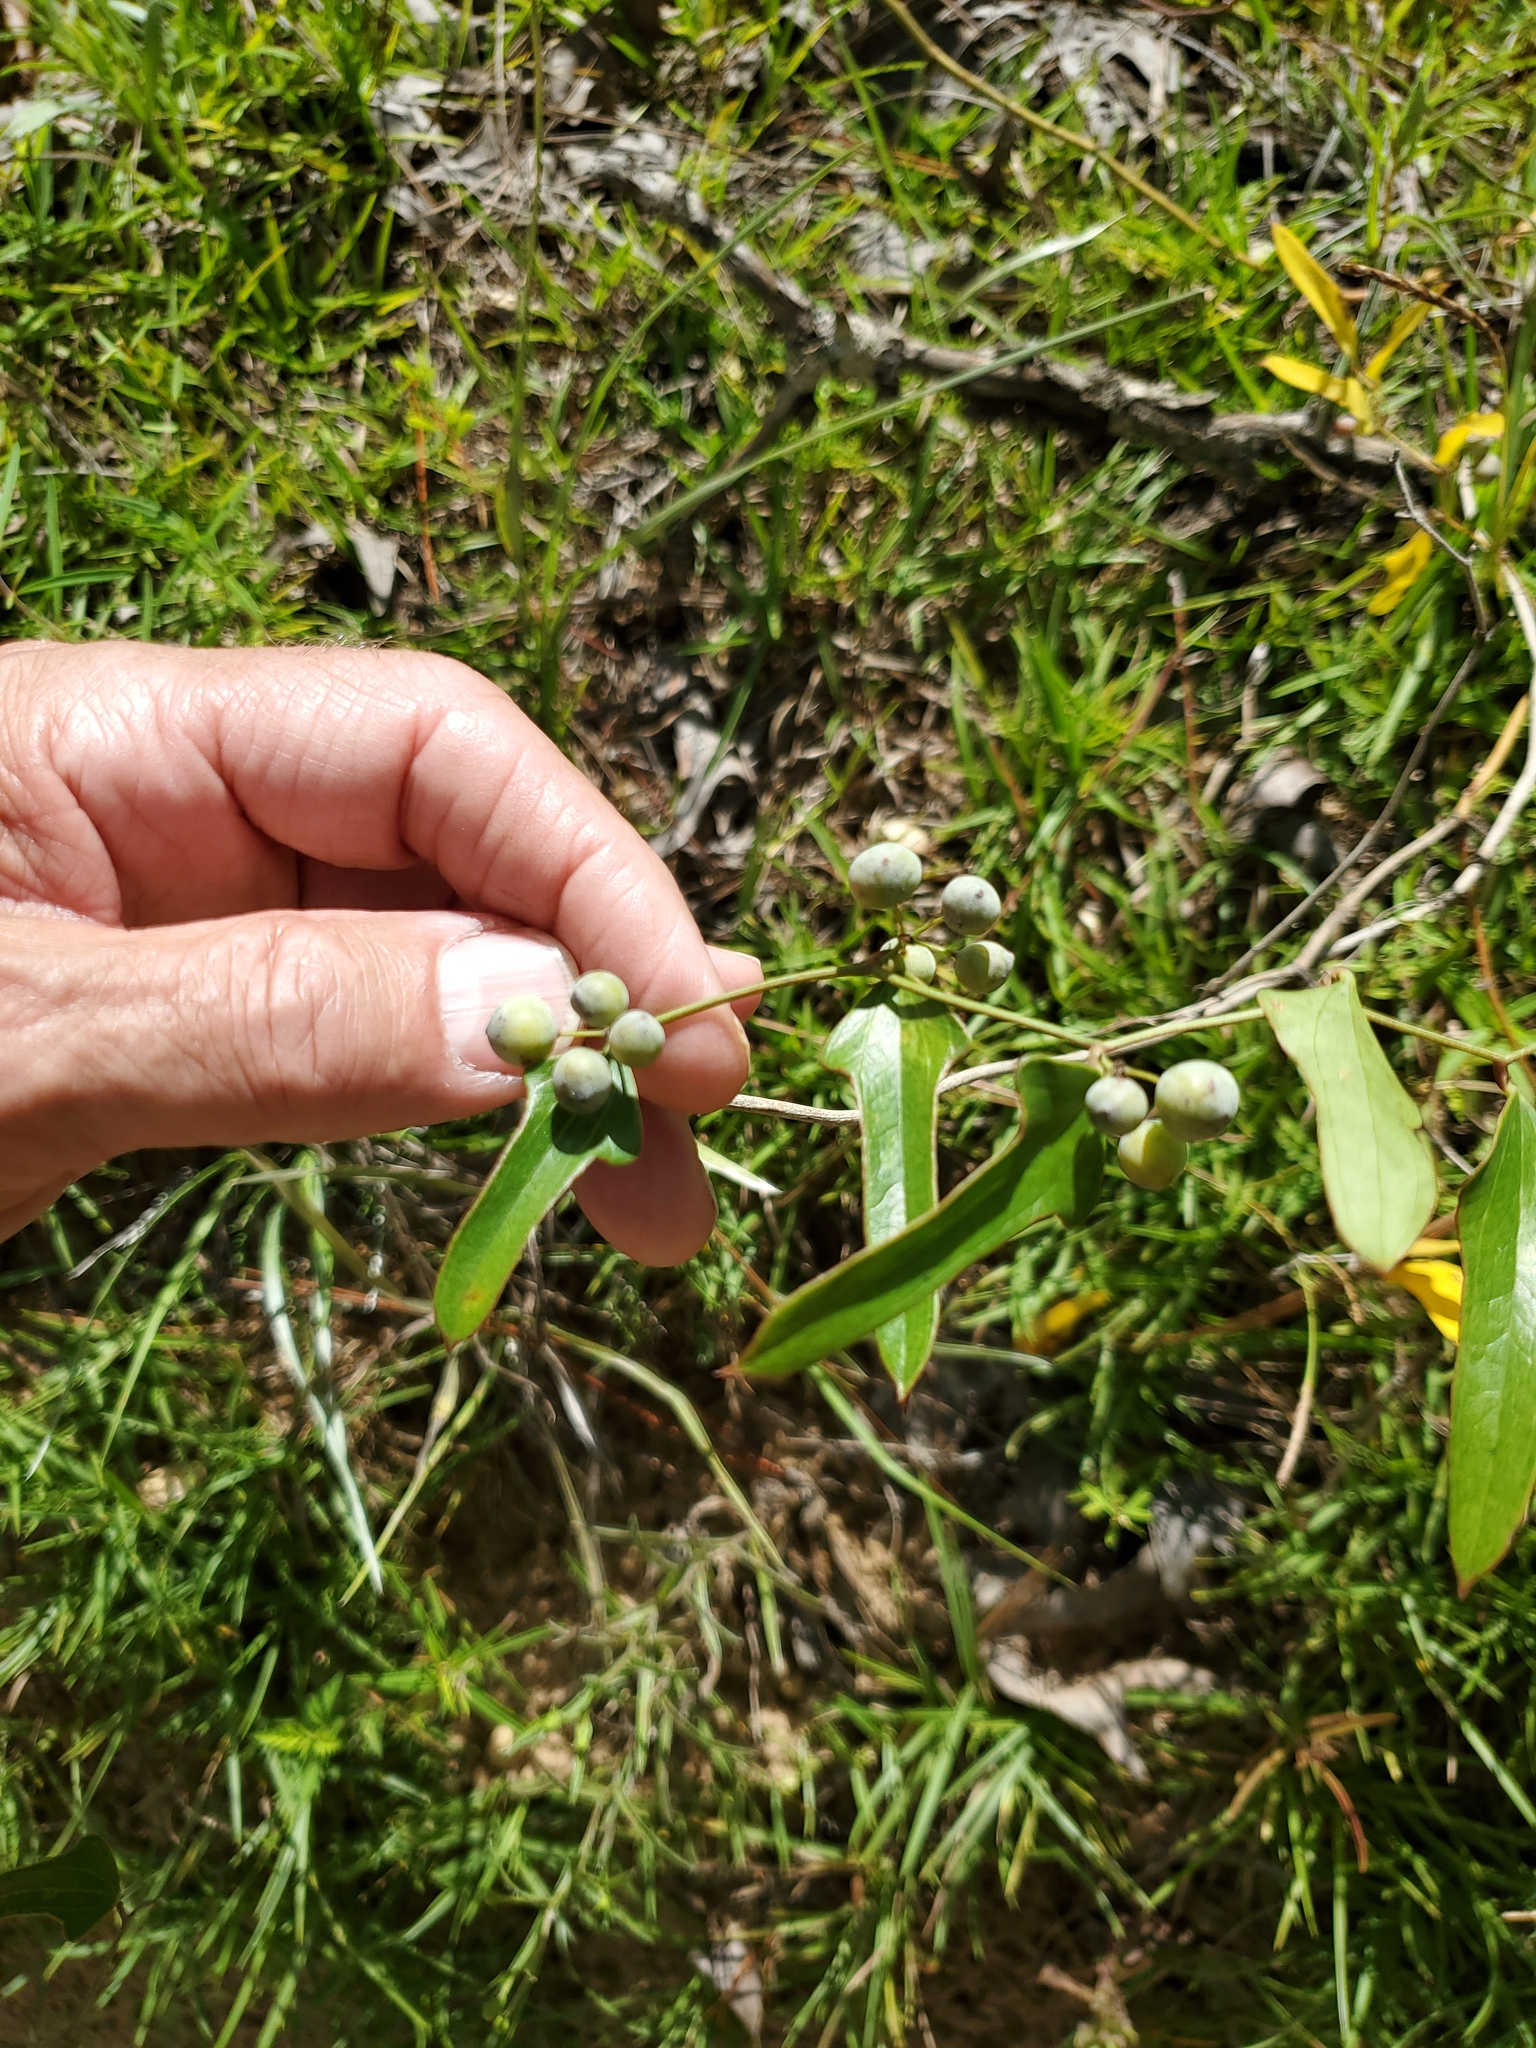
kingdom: Plantae
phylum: Tracheophyta
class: Liliopsida
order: Liliales
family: Smilacaceae
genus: Smilax
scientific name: Smilax auriculata
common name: Wild bamboo
